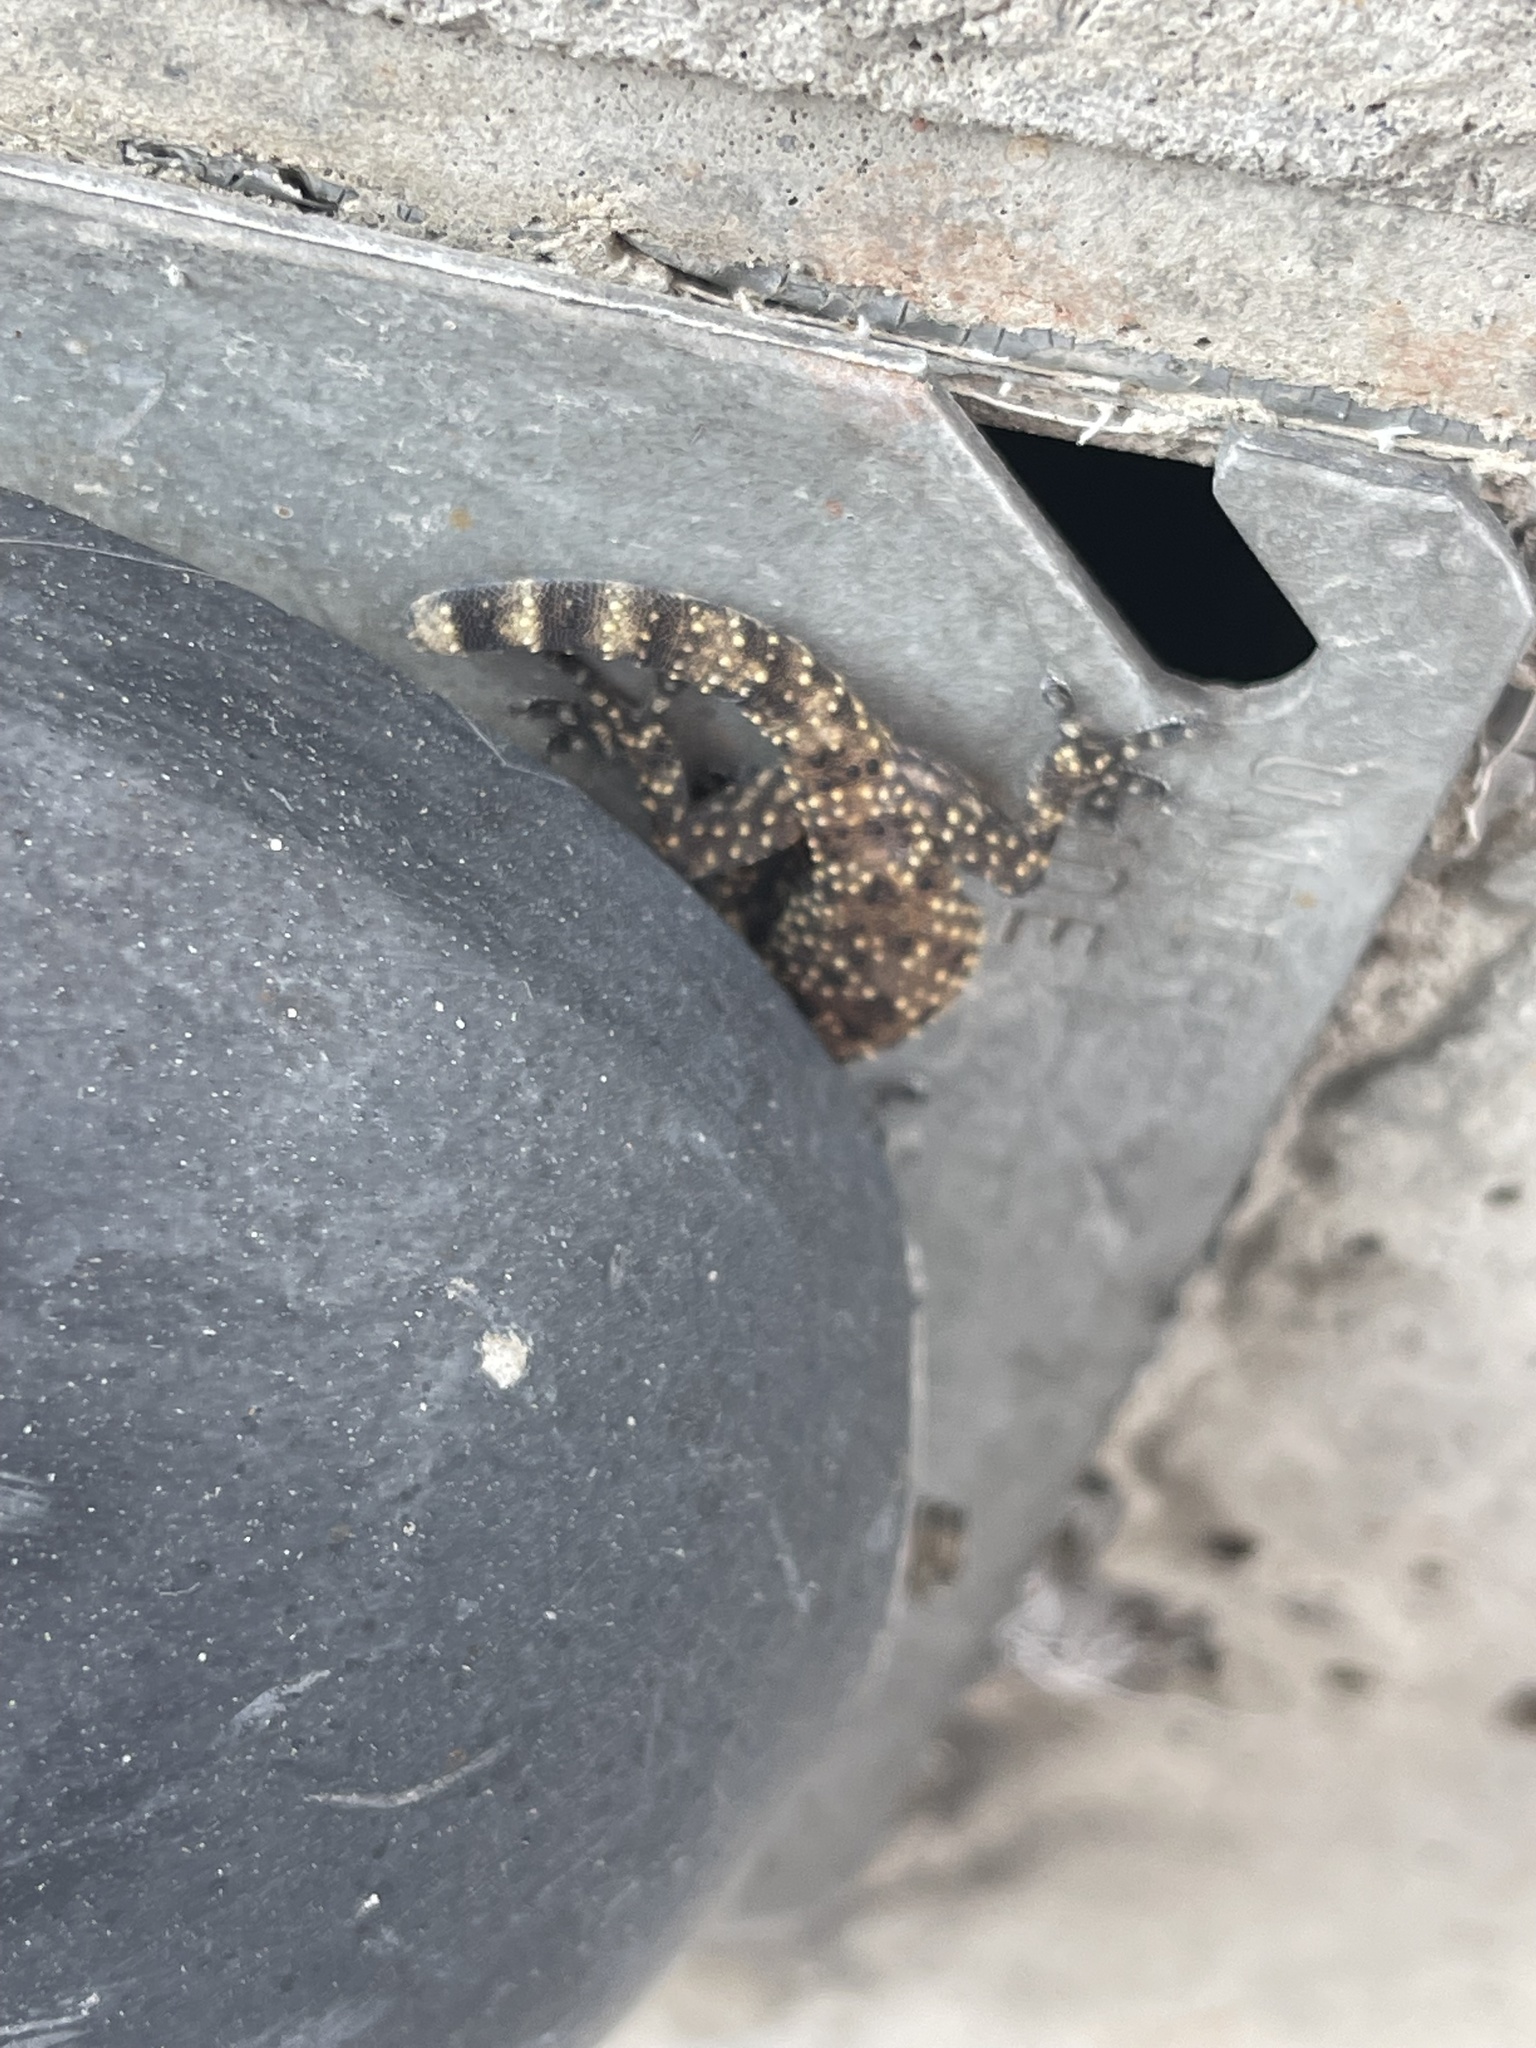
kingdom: Animalia
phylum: Chordata
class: Squamata
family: Gekkonidae
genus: Hemidactylus
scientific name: Hemidactylus turcicus
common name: Turkish gecko
